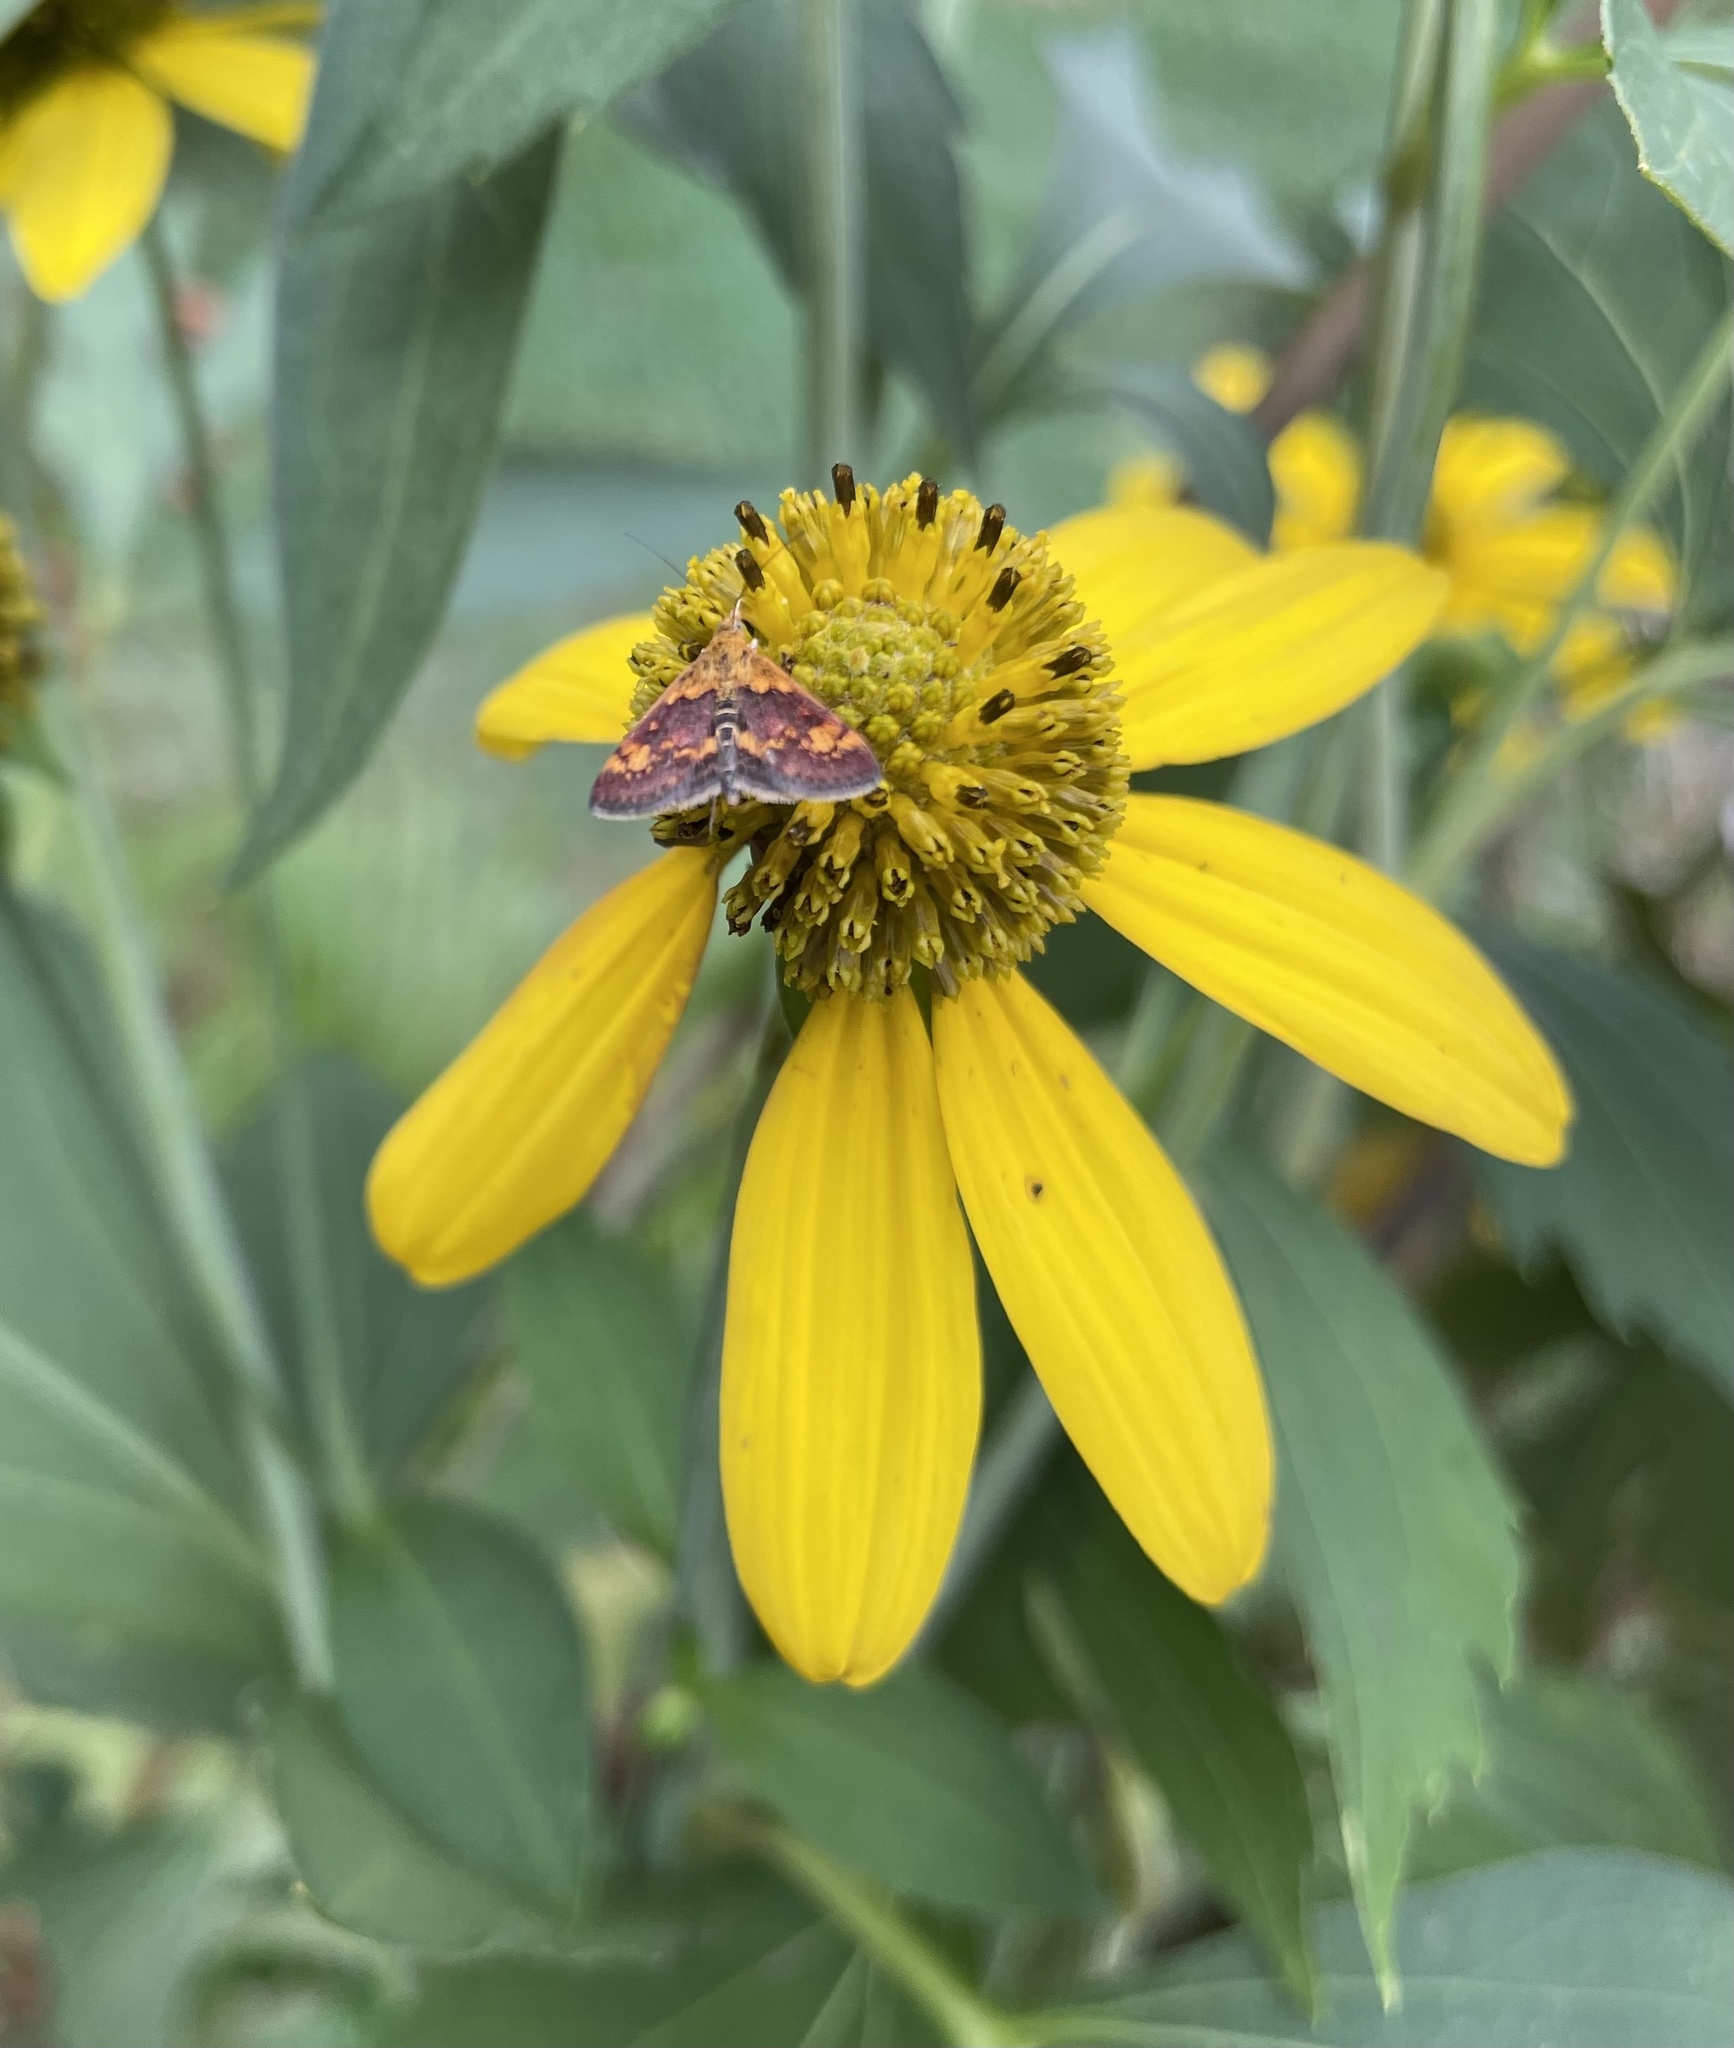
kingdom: Animalia
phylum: Arthropoda
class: Insecta
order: Lepidoptera
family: Crambidae
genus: Pyrausta
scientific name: Pyrausta orphisalis
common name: Orange mint moth
